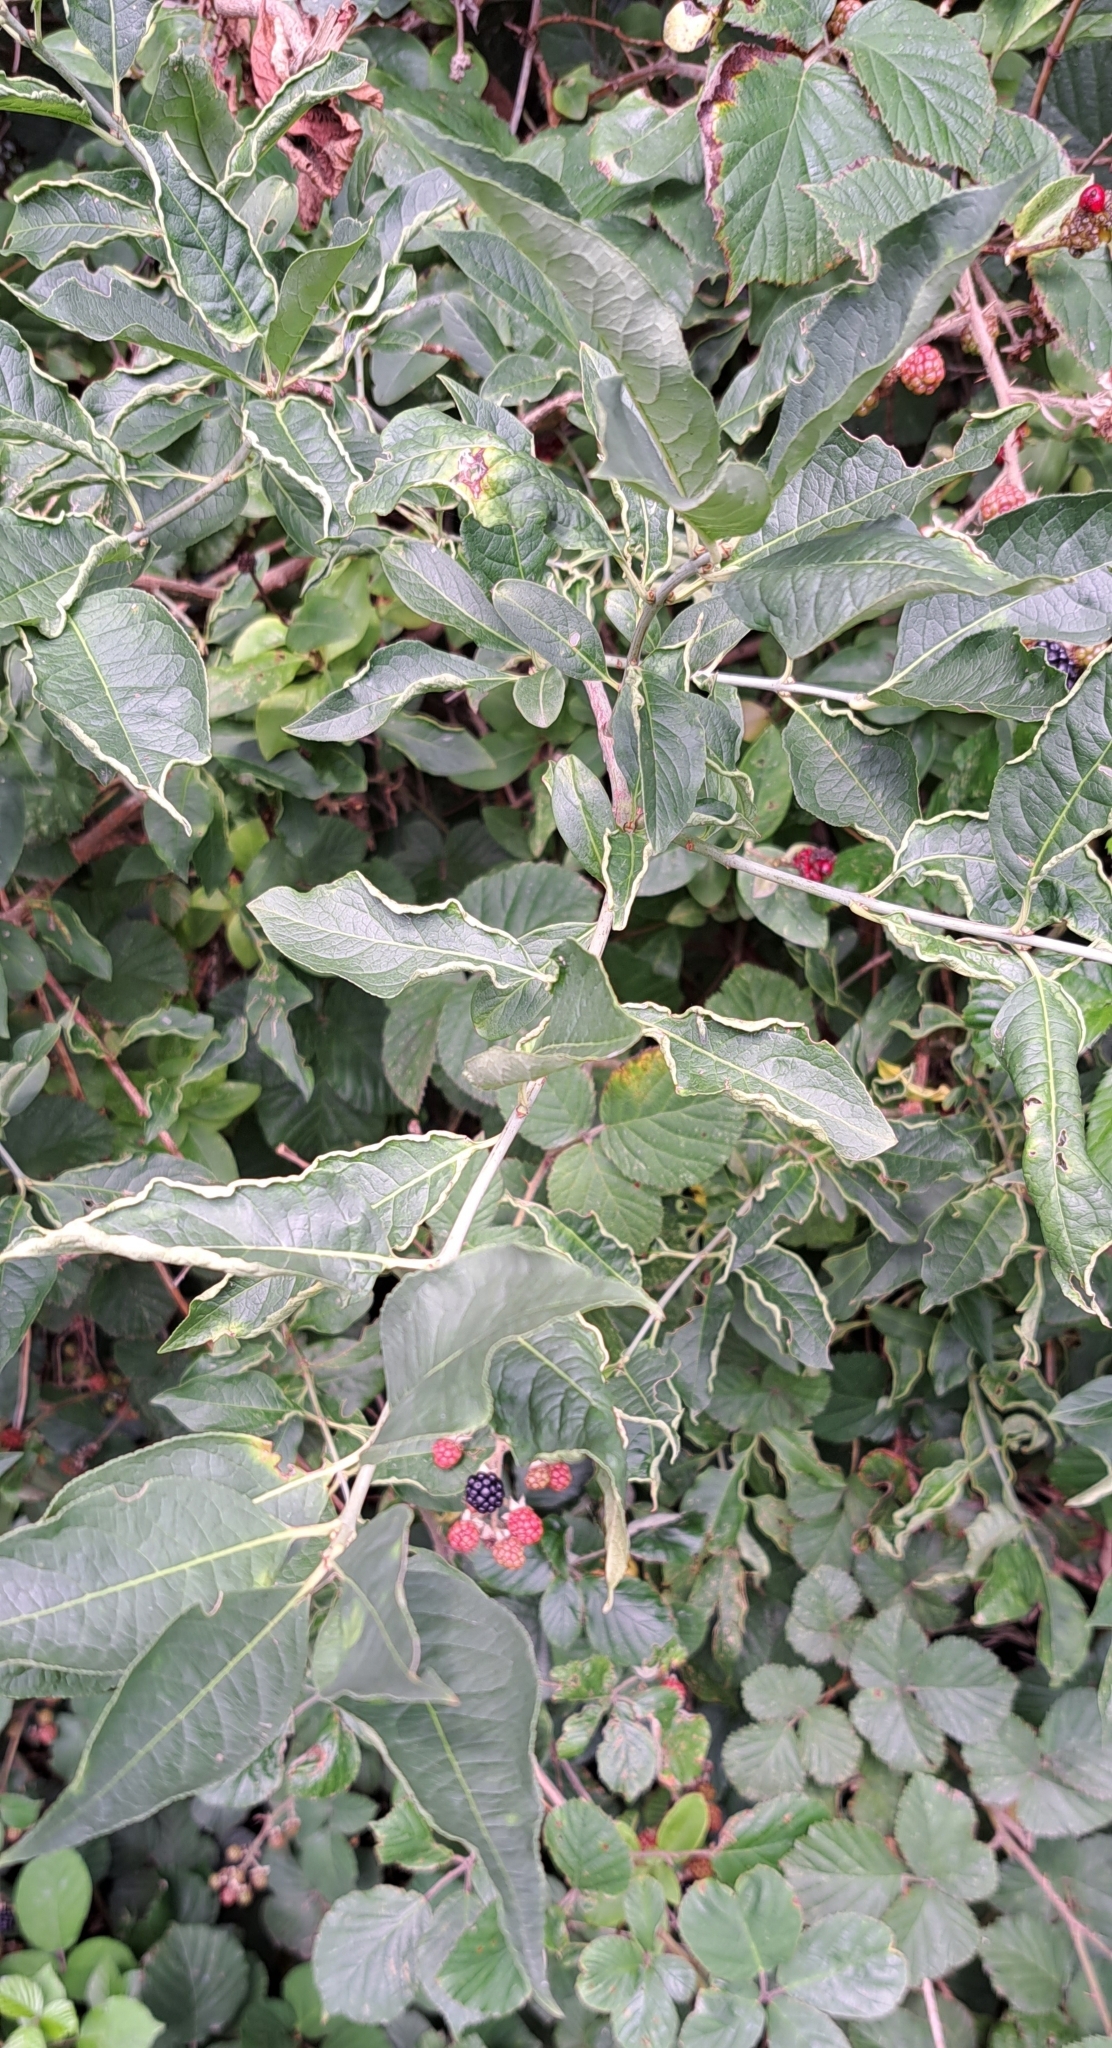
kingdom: Plantae
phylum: Tracheophyta
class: Magnoliopsida
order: Celastrales
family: Celastraceae
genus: Euonymus
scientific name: Euonymus europaeus
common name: Spindle
